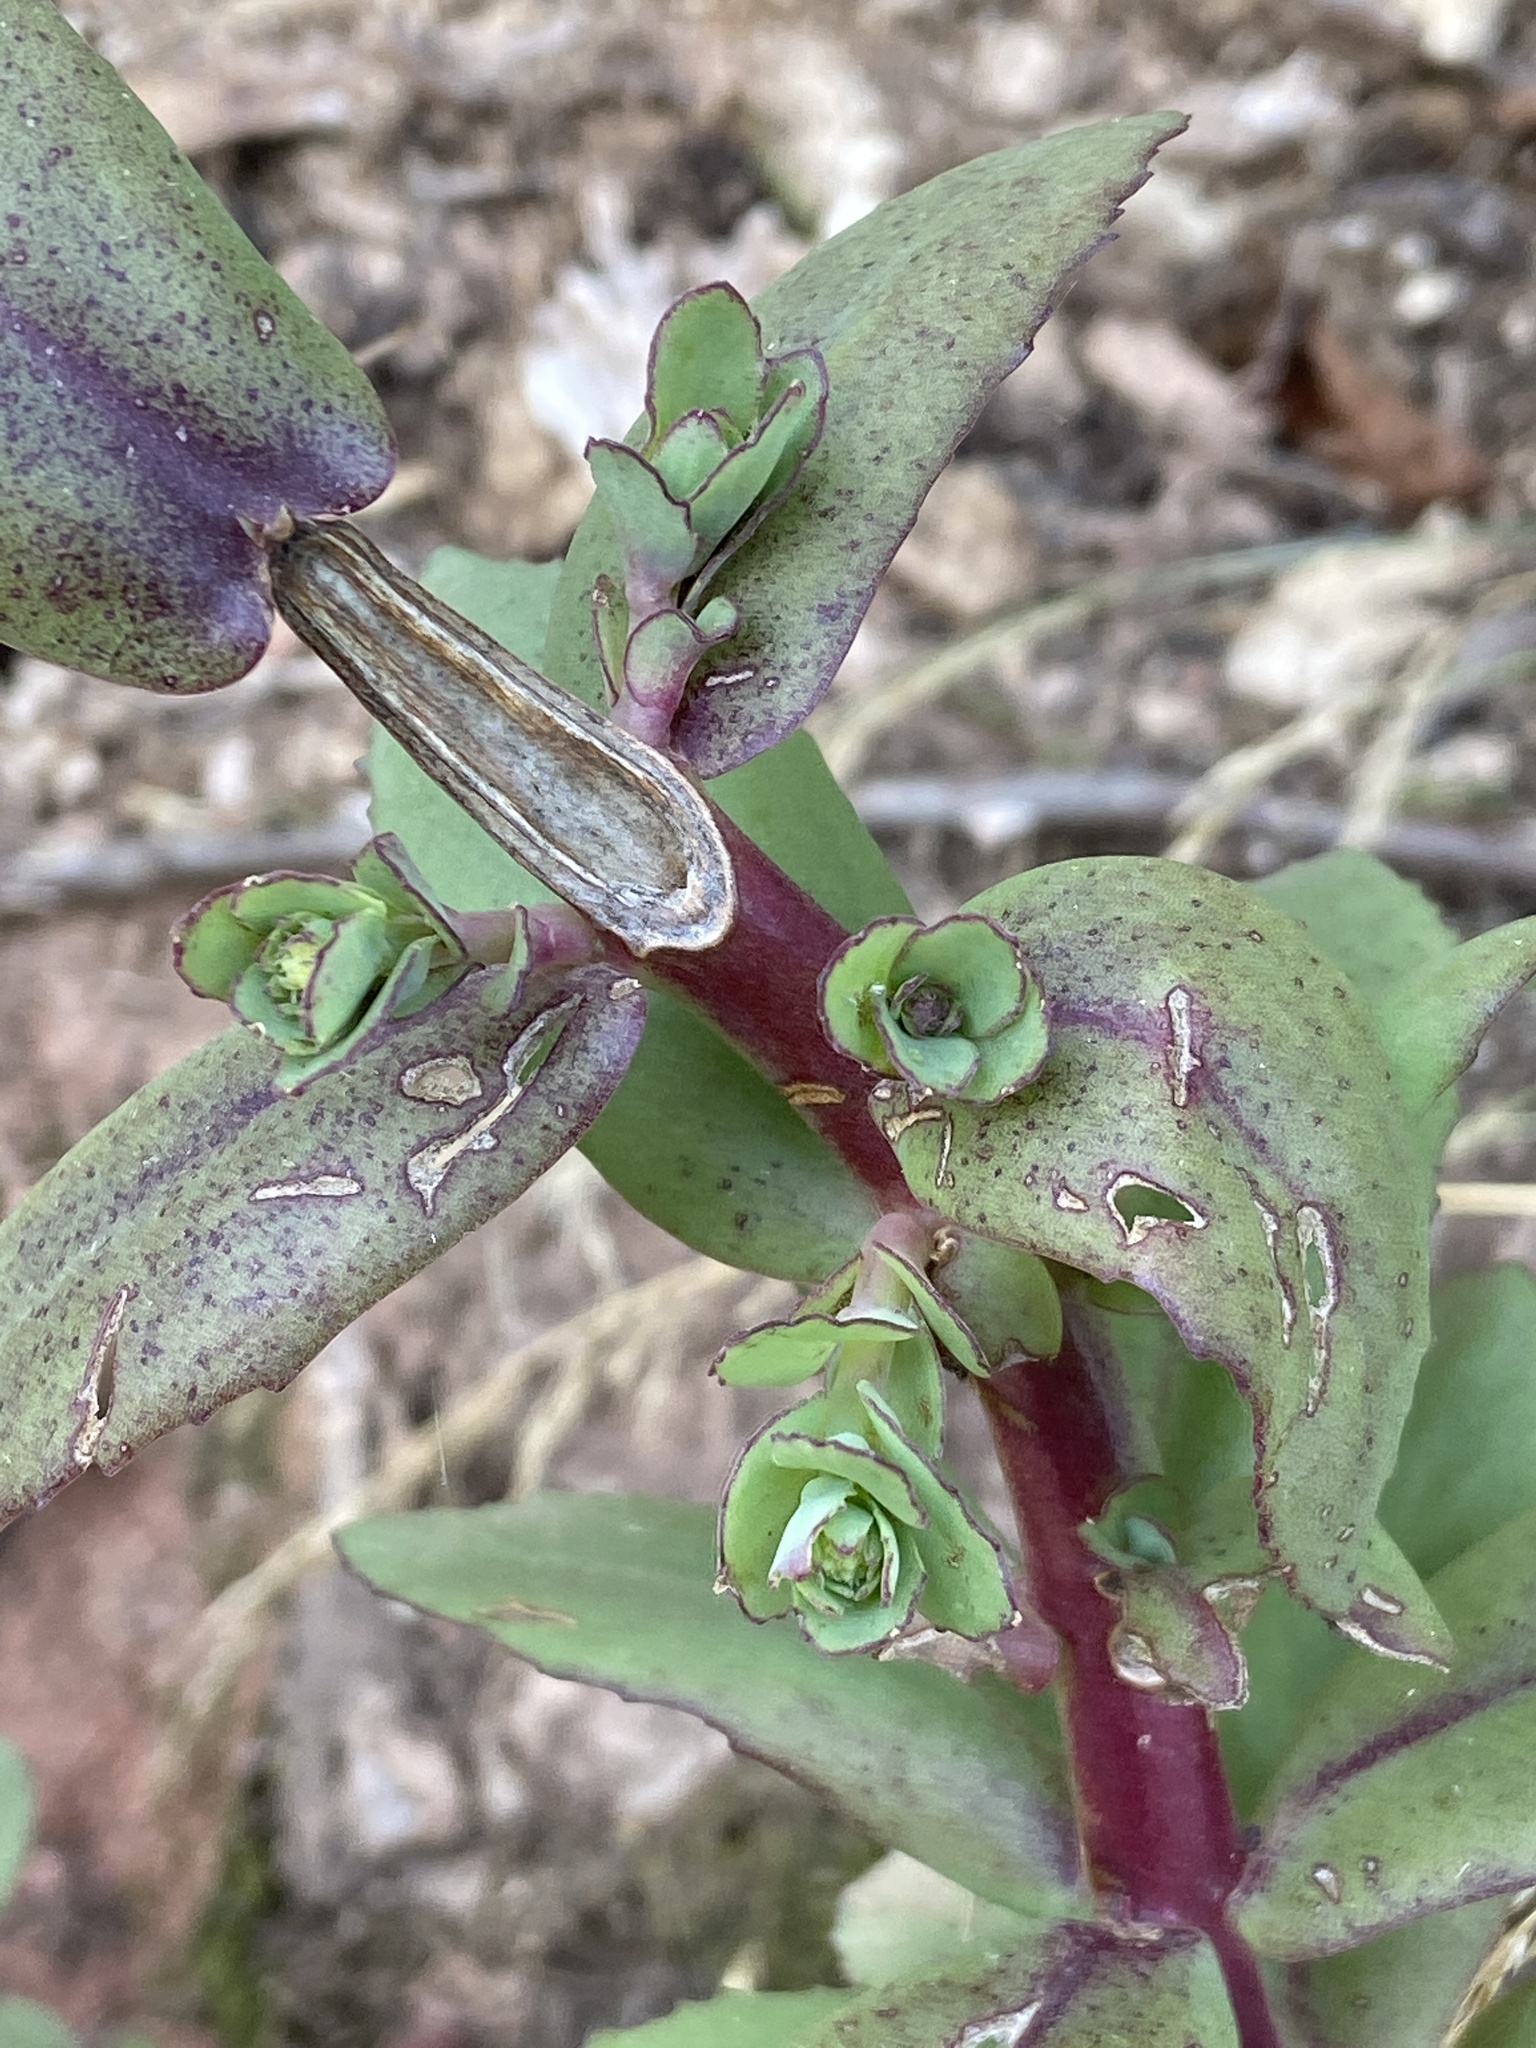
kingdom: Plantae
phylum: Tracheophyta
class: Magnoliopsida
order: Saxifragales
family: Crassulaceae
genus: Hylotelephium
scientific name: Hylotelephium maximum
